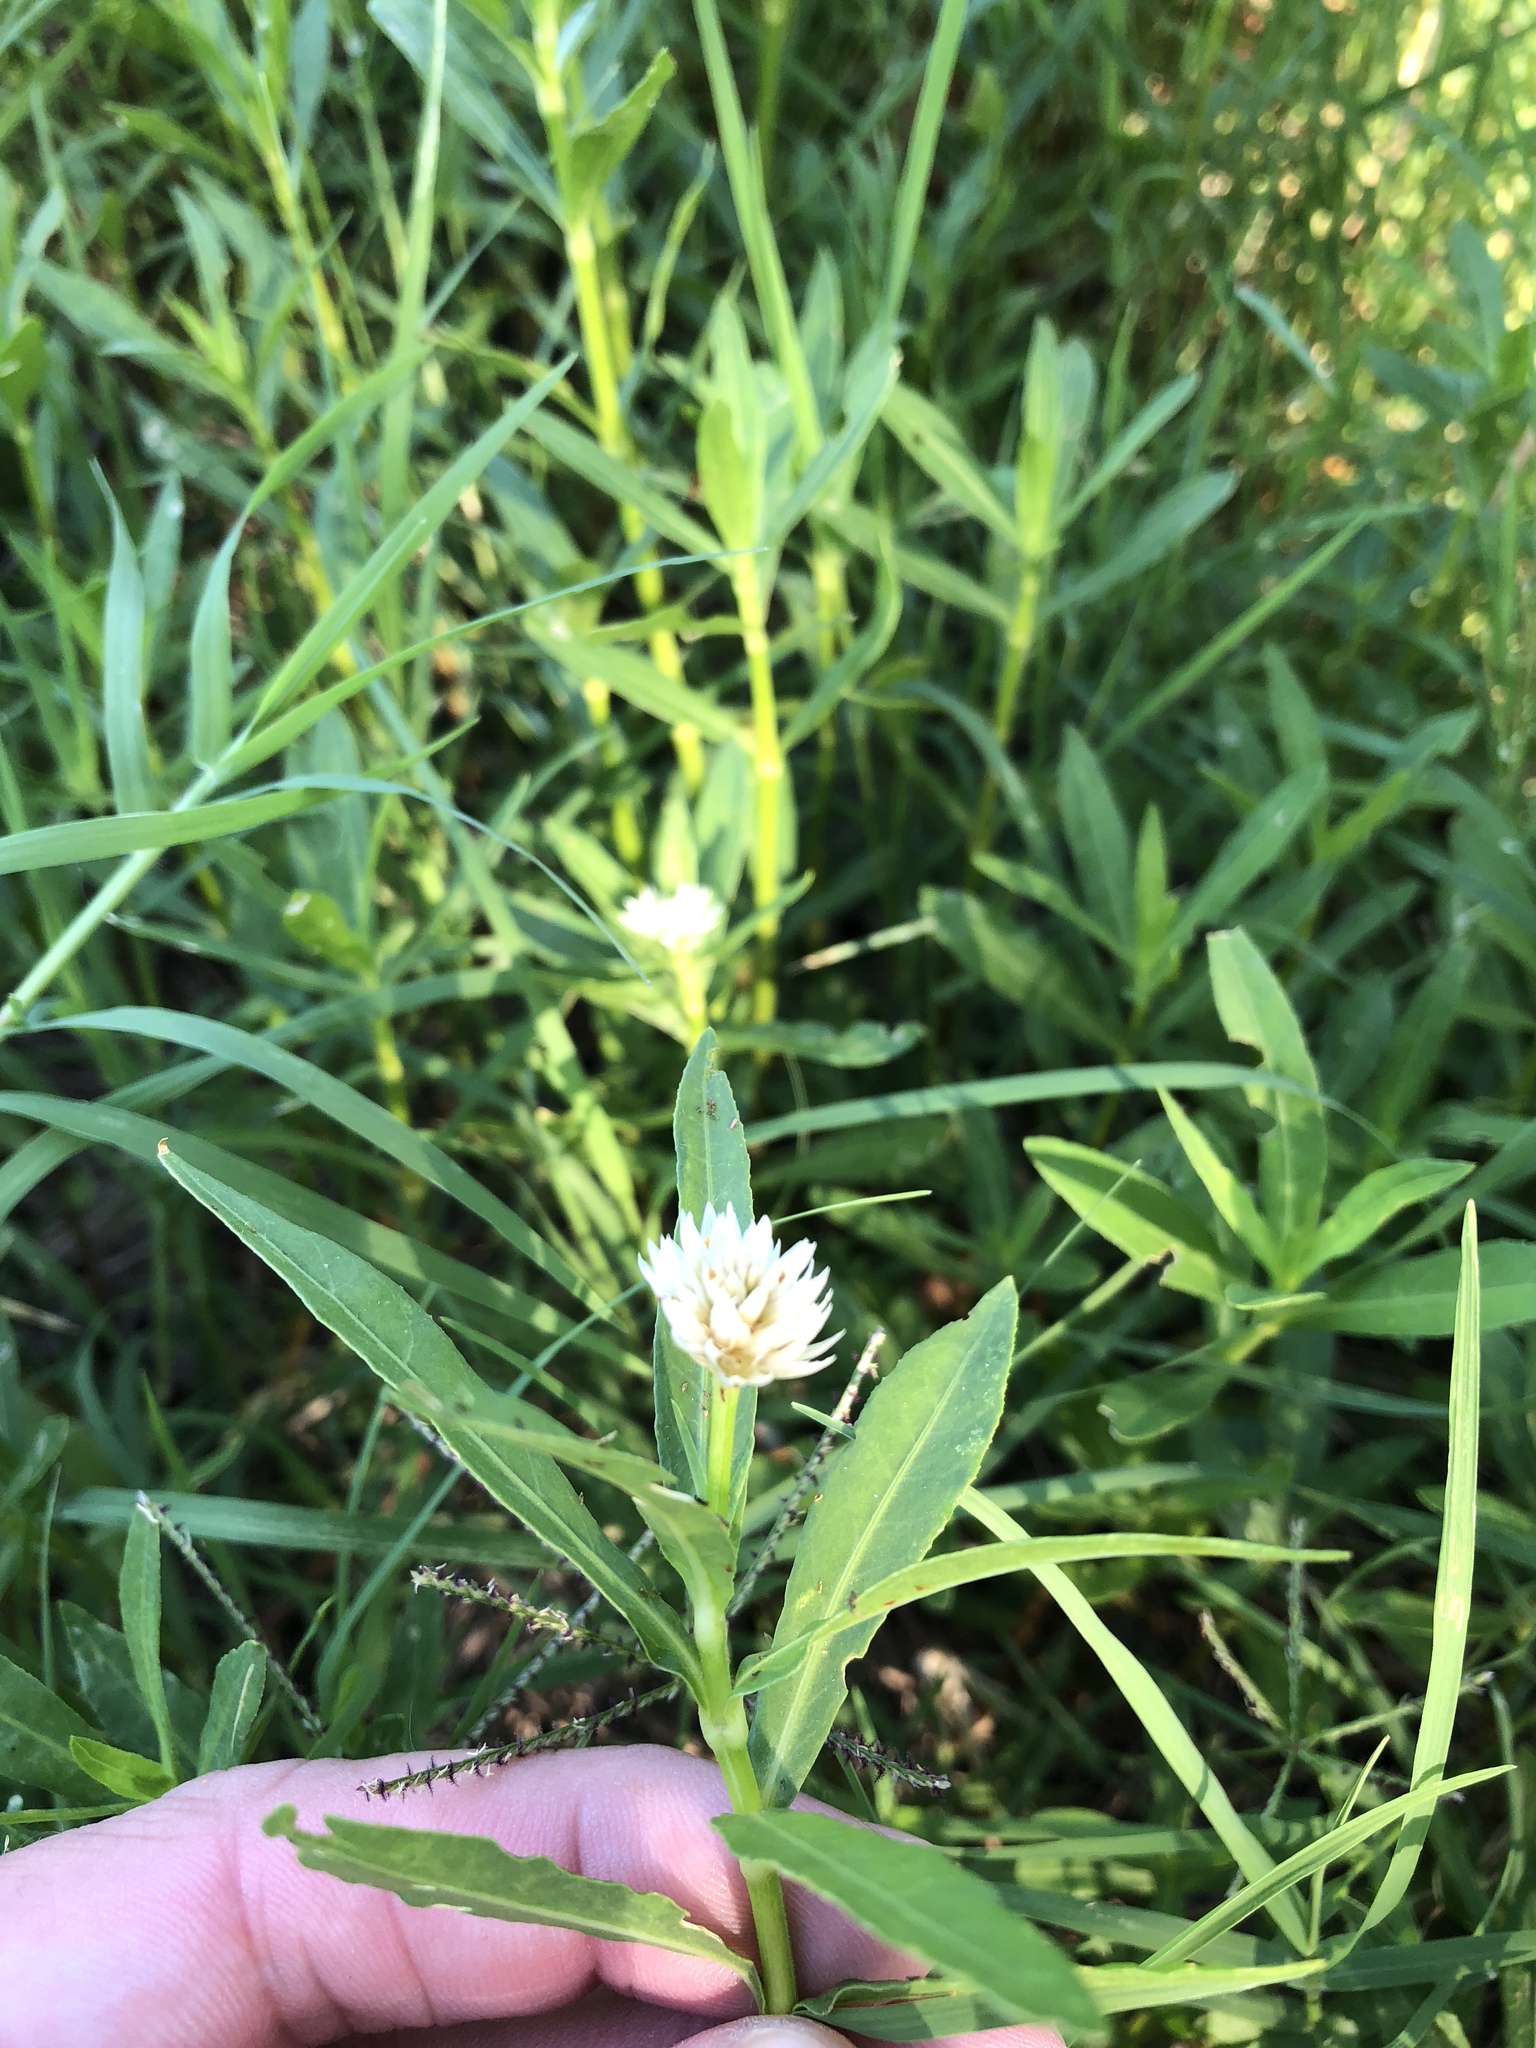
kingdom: Plantae
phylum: Tracheophyta
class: Magnoliopsida
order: Caryophyllales
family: Amaranthaceae
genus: Alternanthera
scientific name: Alternanthera philoxeroides
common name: Alligatorweed
